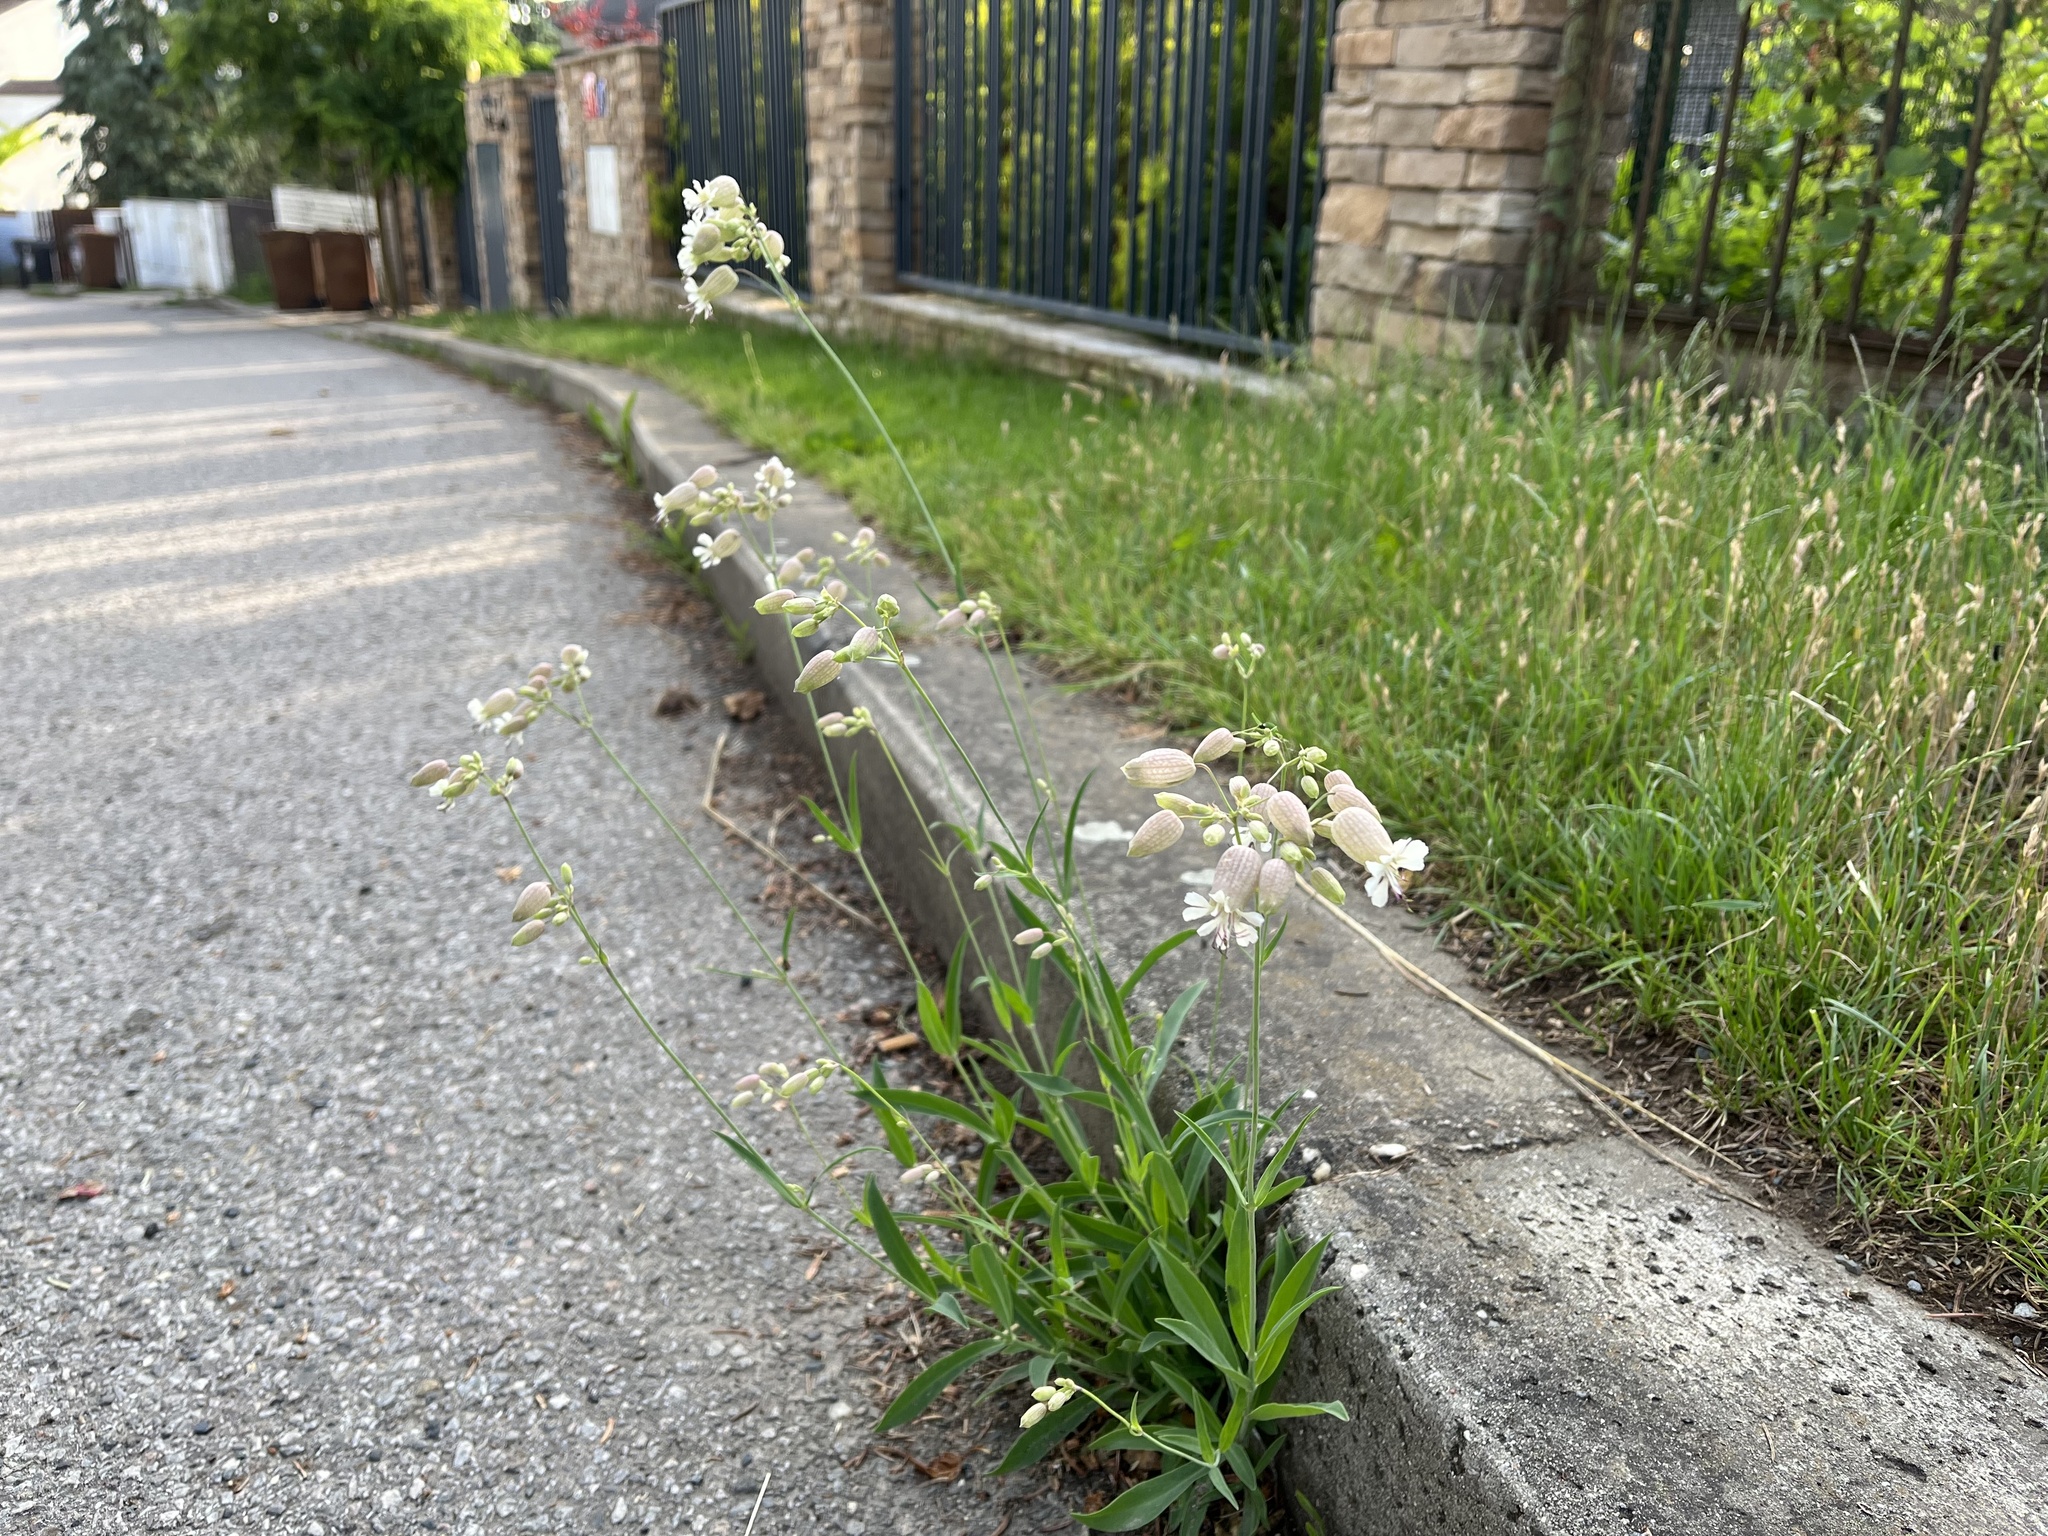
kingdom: Plantae
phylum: Tracheophyta
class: Magnoliopsida
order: Caryophyllales
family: Caryophyllaceae
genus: Silene
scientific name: Silene vulgaris
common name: Bladder campion
